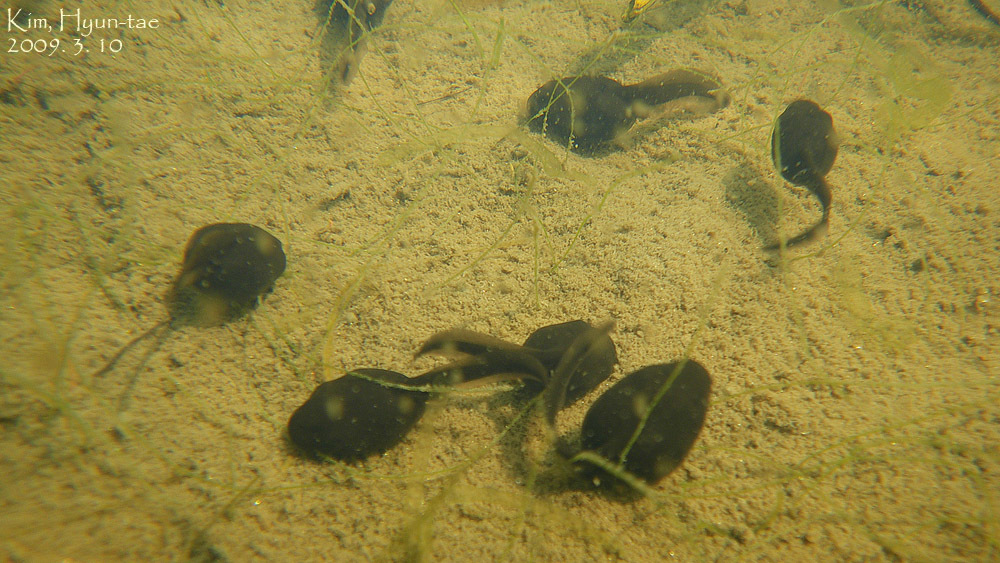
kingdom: Animalia
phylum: Chordata
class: Amphibia
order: Anura
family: Bufonidae
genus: Bufo
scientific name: Bufo gargarizans
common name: Asiatic toad
